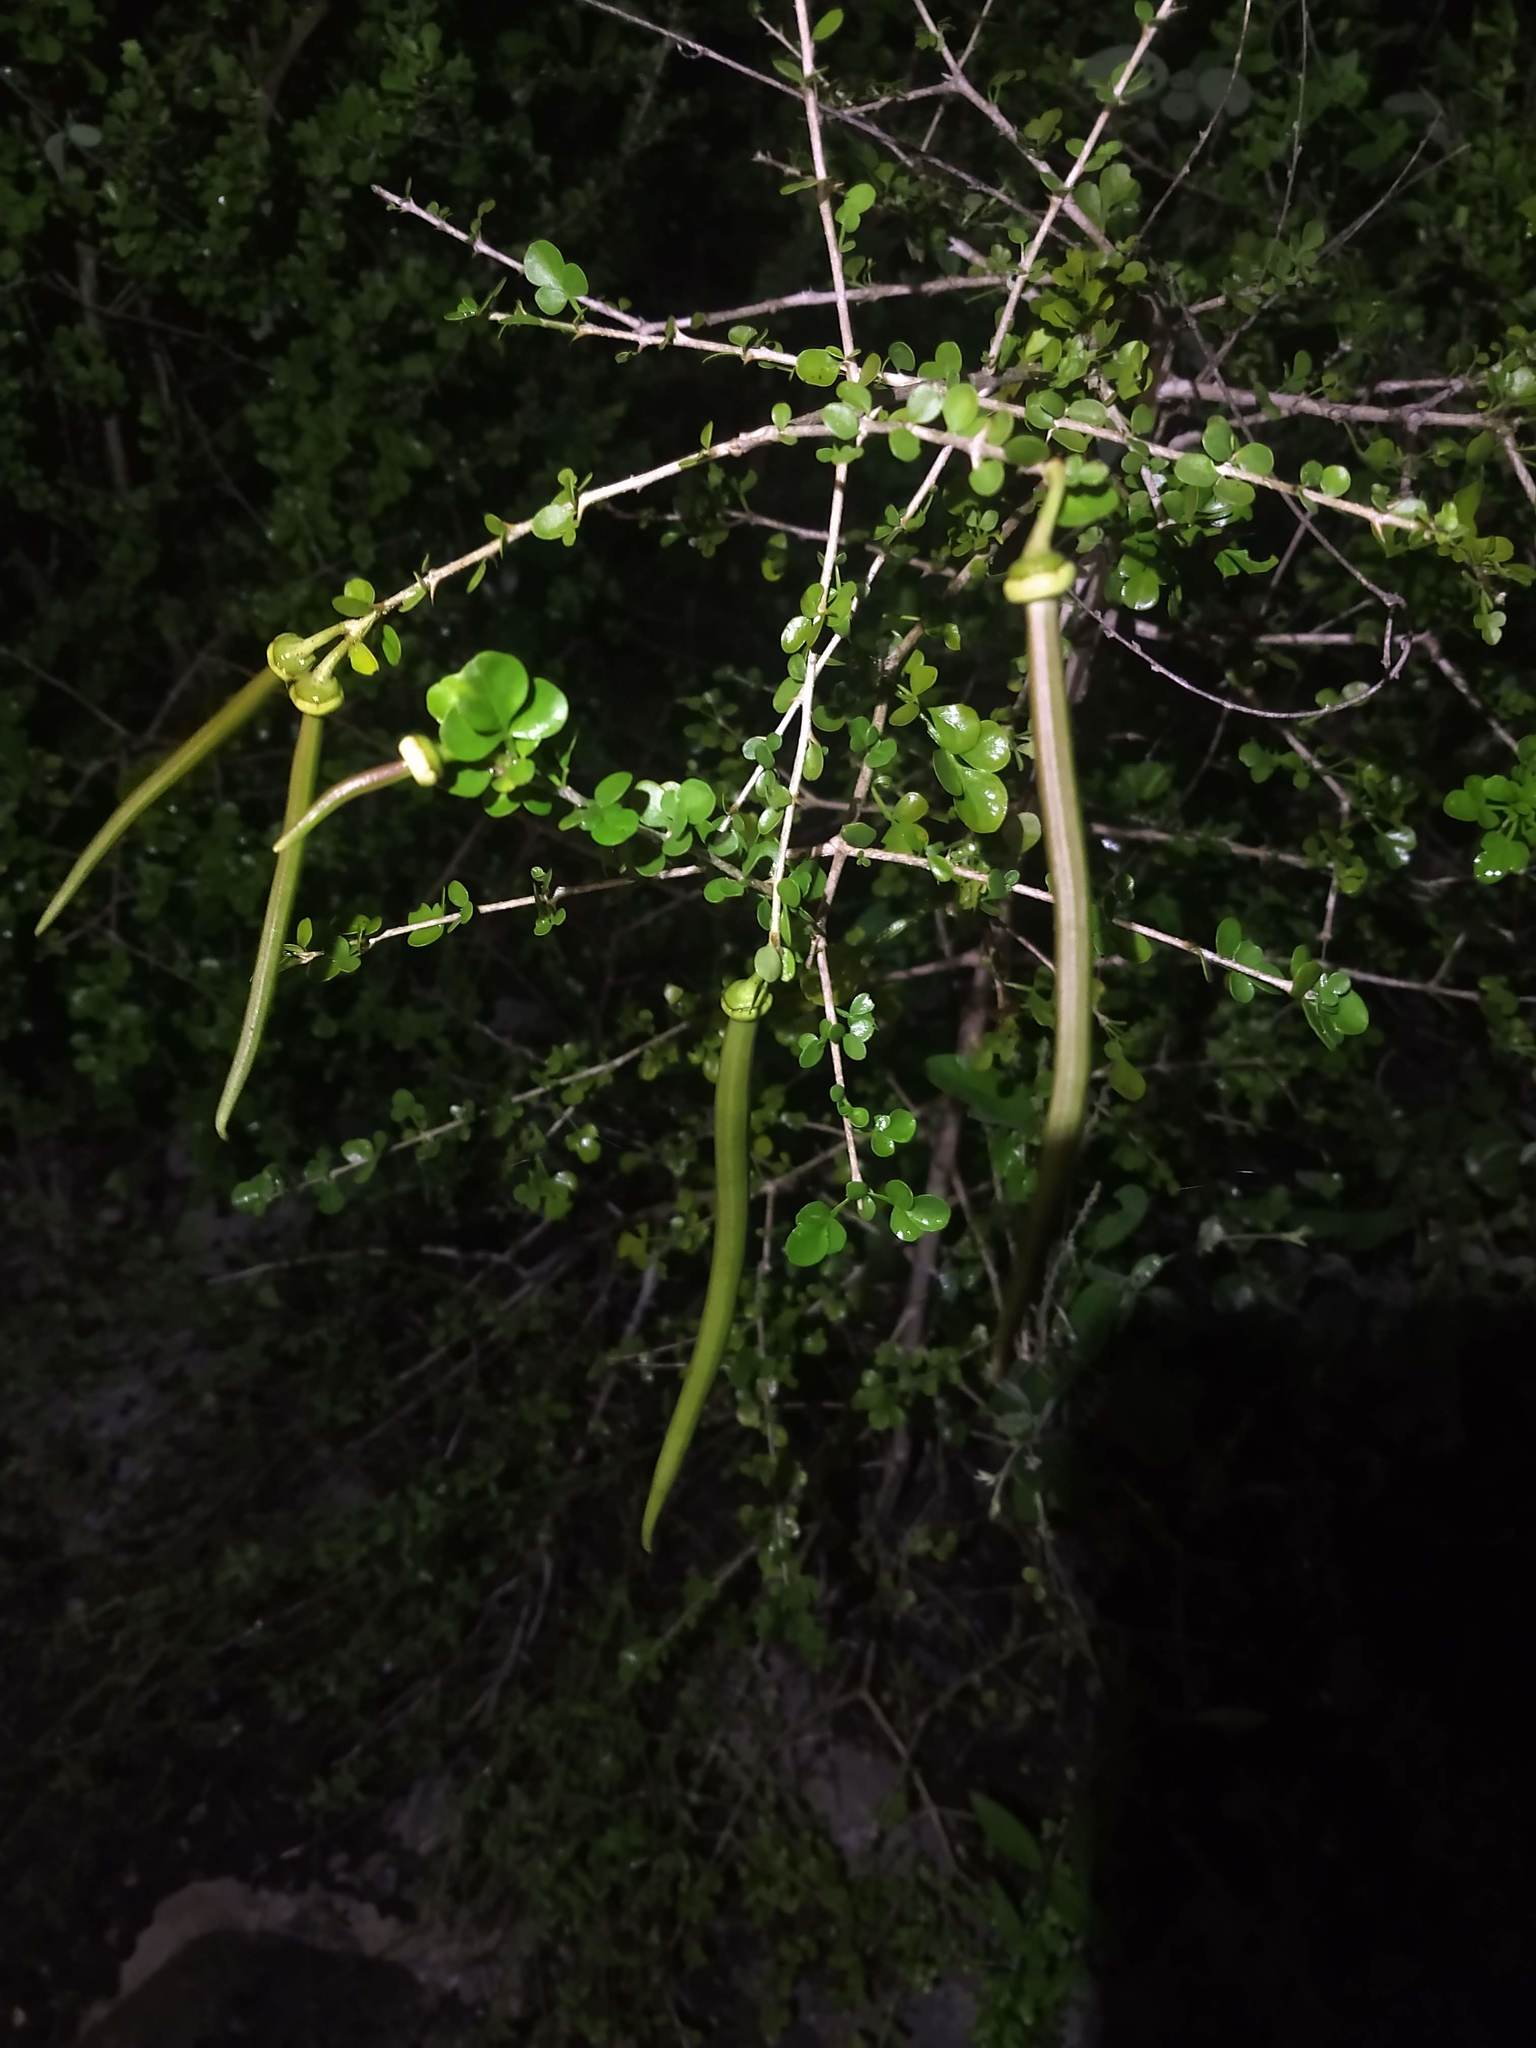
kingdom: Plantae
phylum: Tracheophyta
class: Magnoliopsida
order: Lamiales
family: Bignoniaceae
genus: Parmentiera
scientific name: Parmentiera millspaughiana
